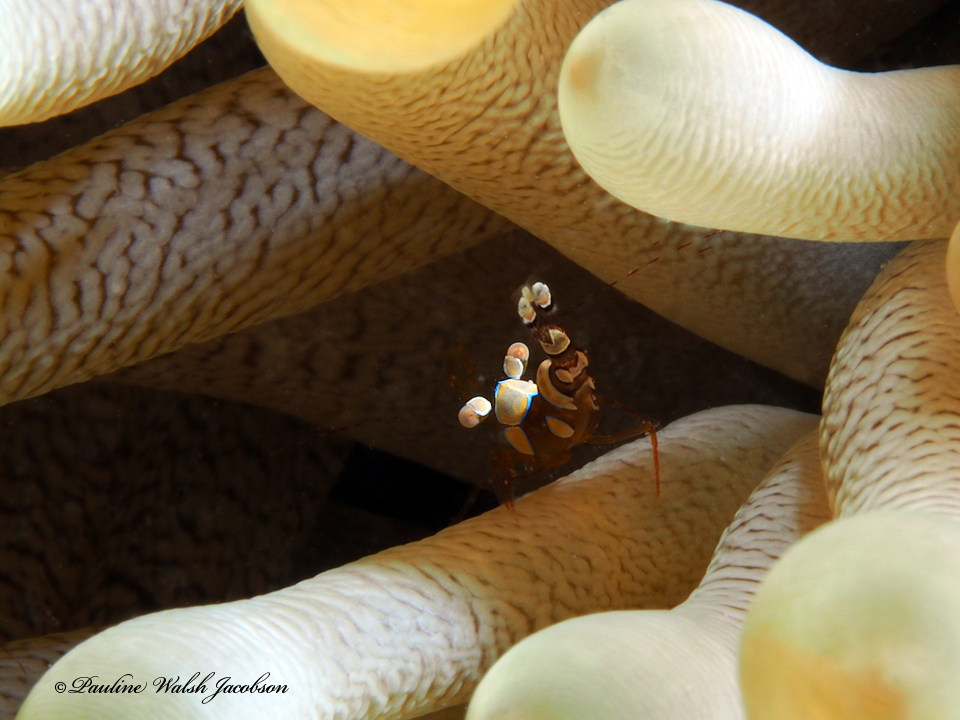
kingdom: Animalia
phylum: Arthropoda
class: Malacostraca
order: Decapoda
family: Thoridae
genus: Thor
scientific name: Thor dicaprio
